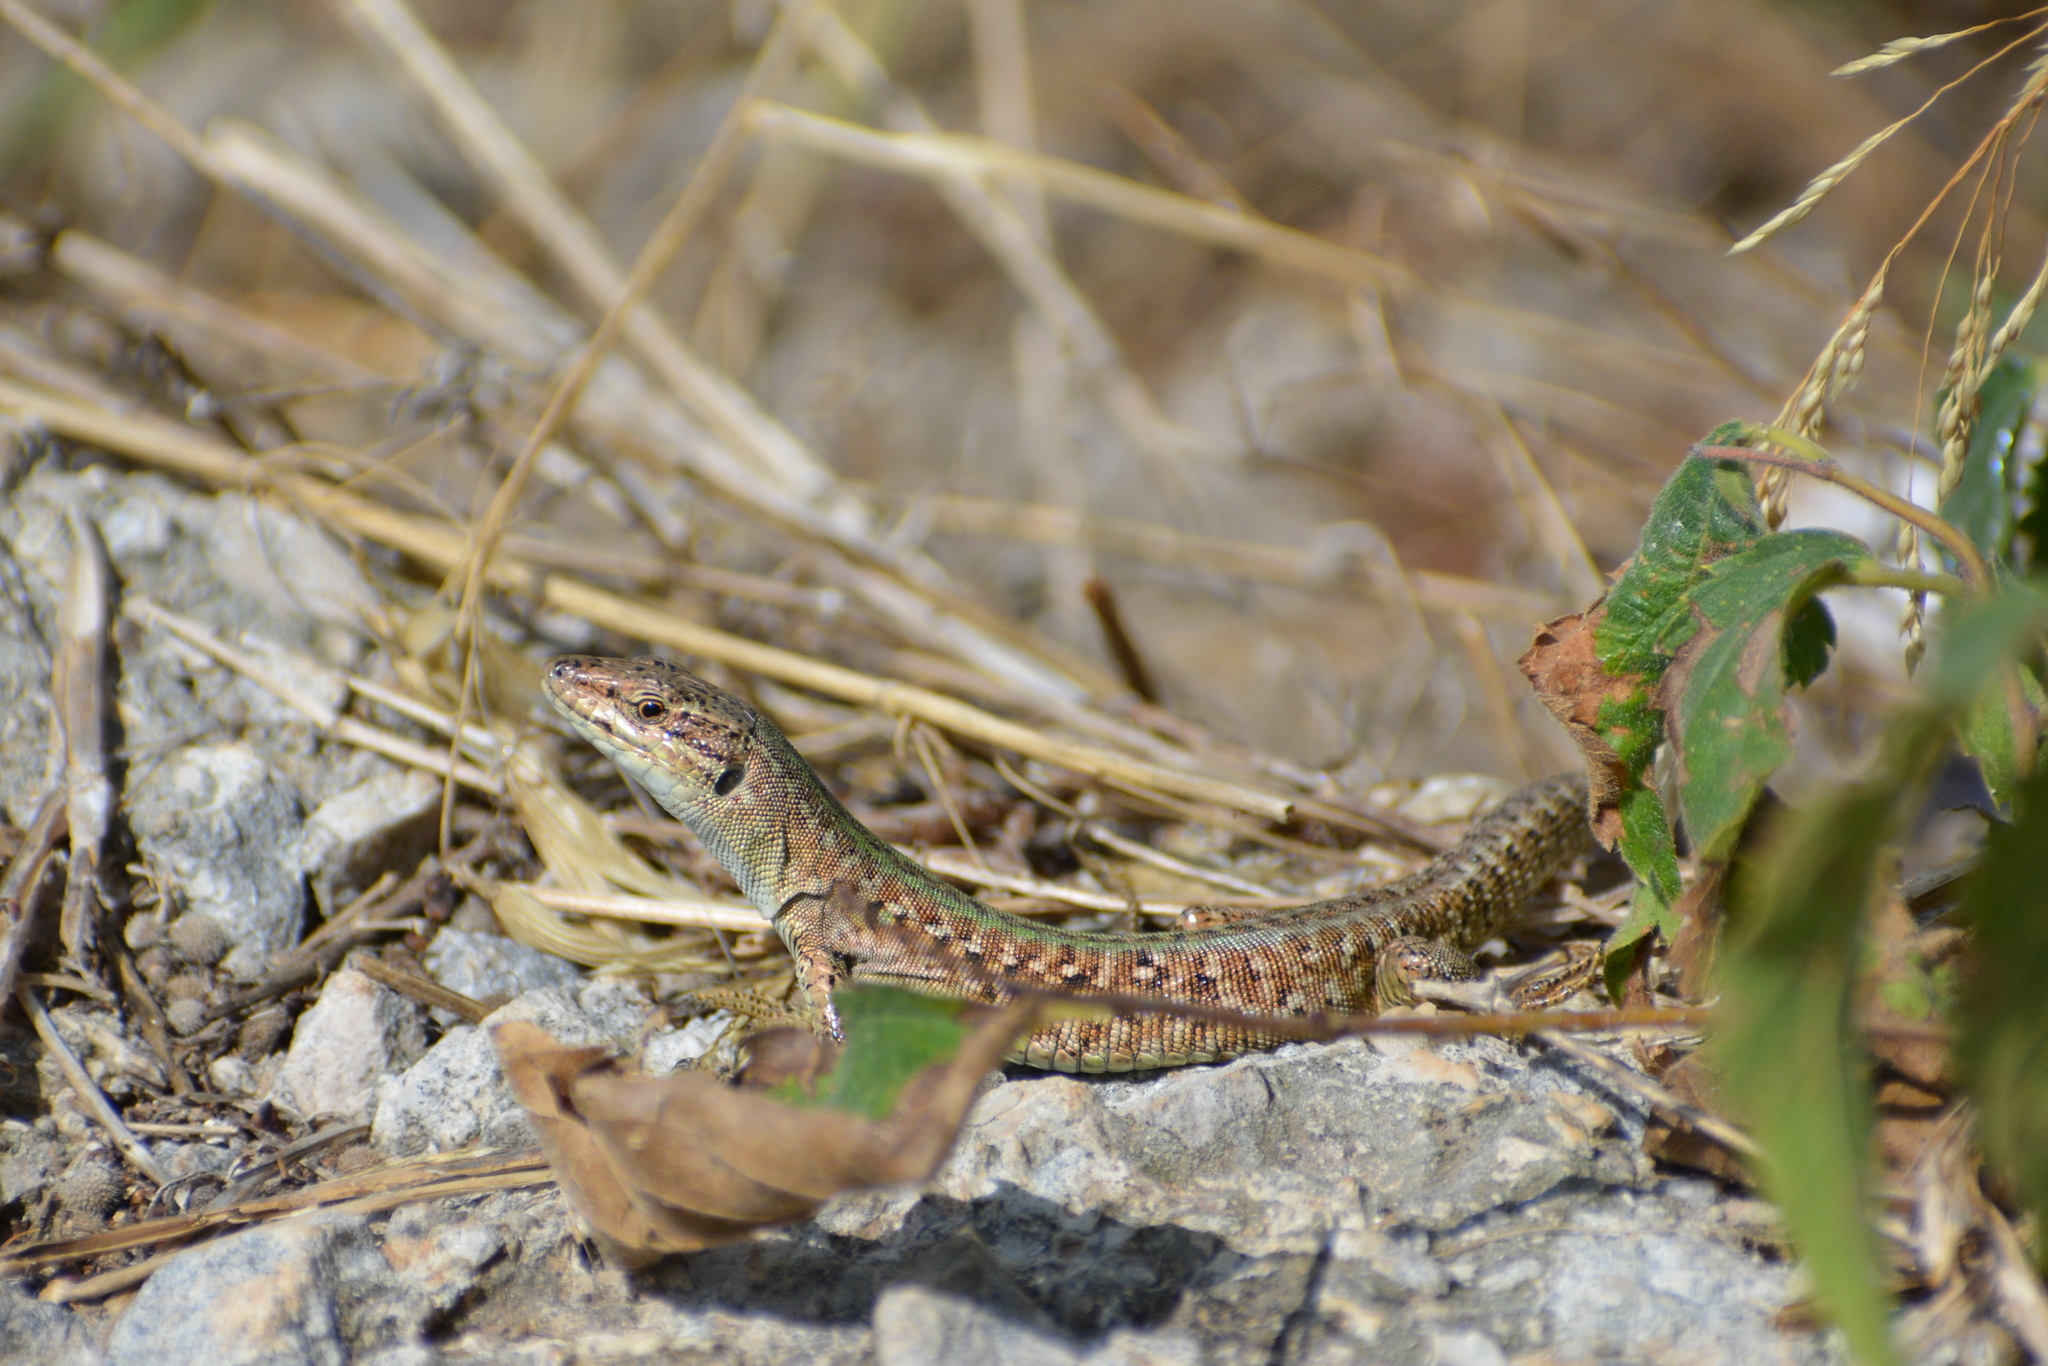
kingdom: Animalia
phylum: Chordata
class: Squamata
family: Lacertidae
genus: Podarcis
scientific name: Podarcis siculus
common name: Italian wall lizard
